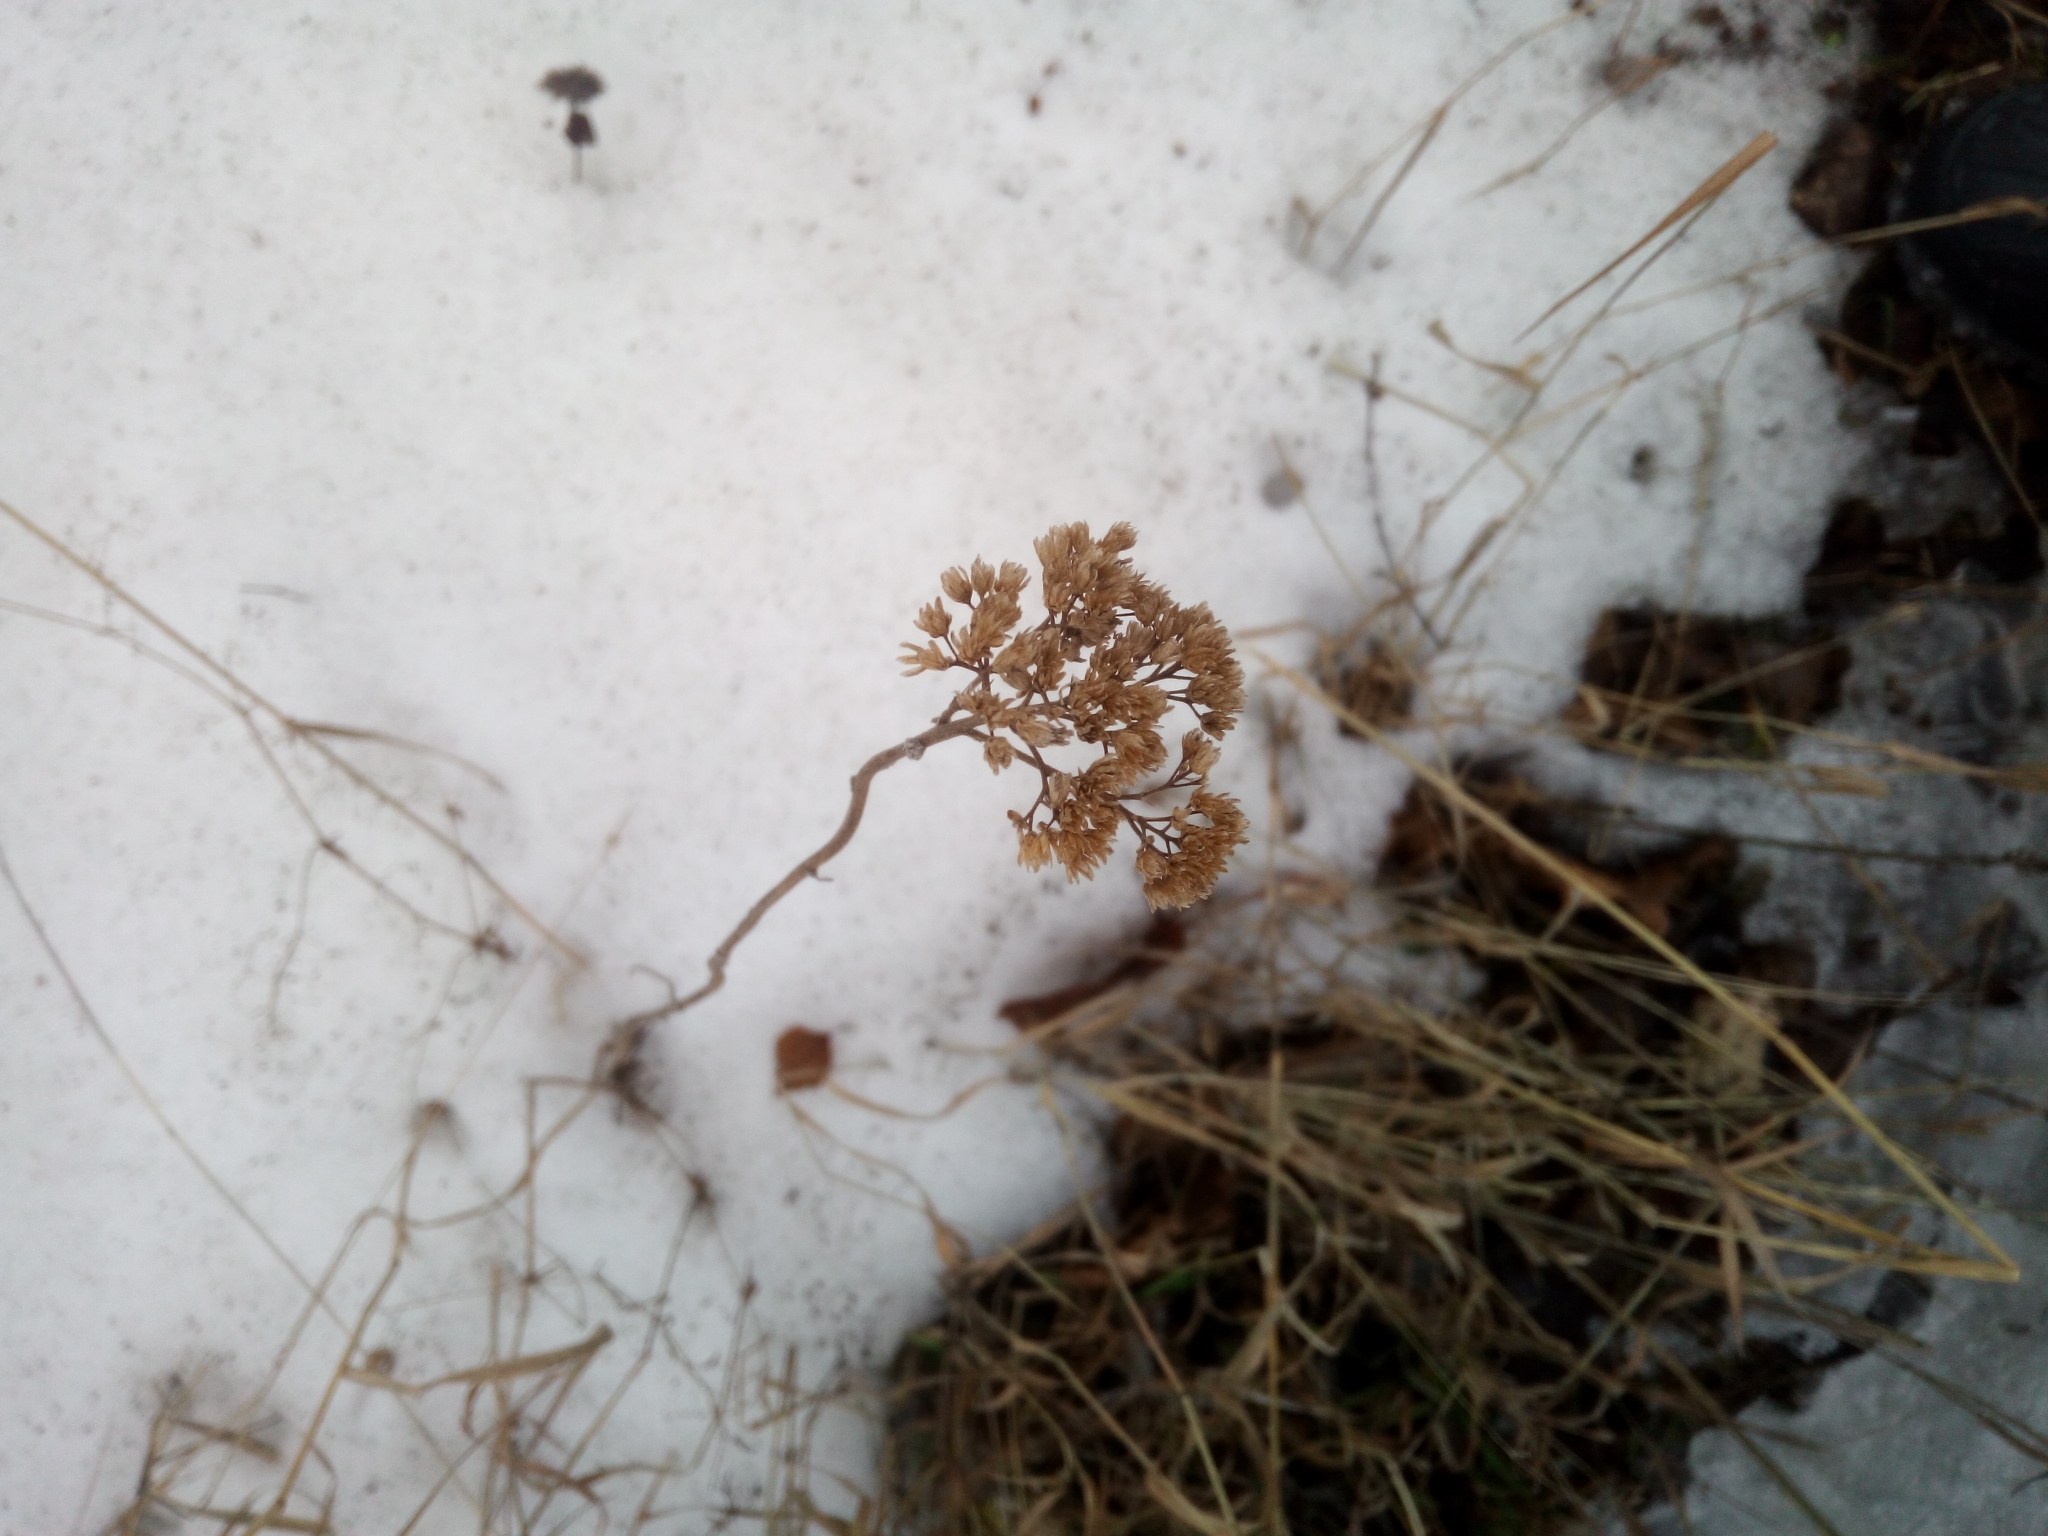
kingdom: Plantae
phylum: Tracheophyta
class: Magnoliopsida
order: Asterales
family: Asteraceae
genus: Achillea
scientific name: Achillea millefolium
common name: Yarrow
